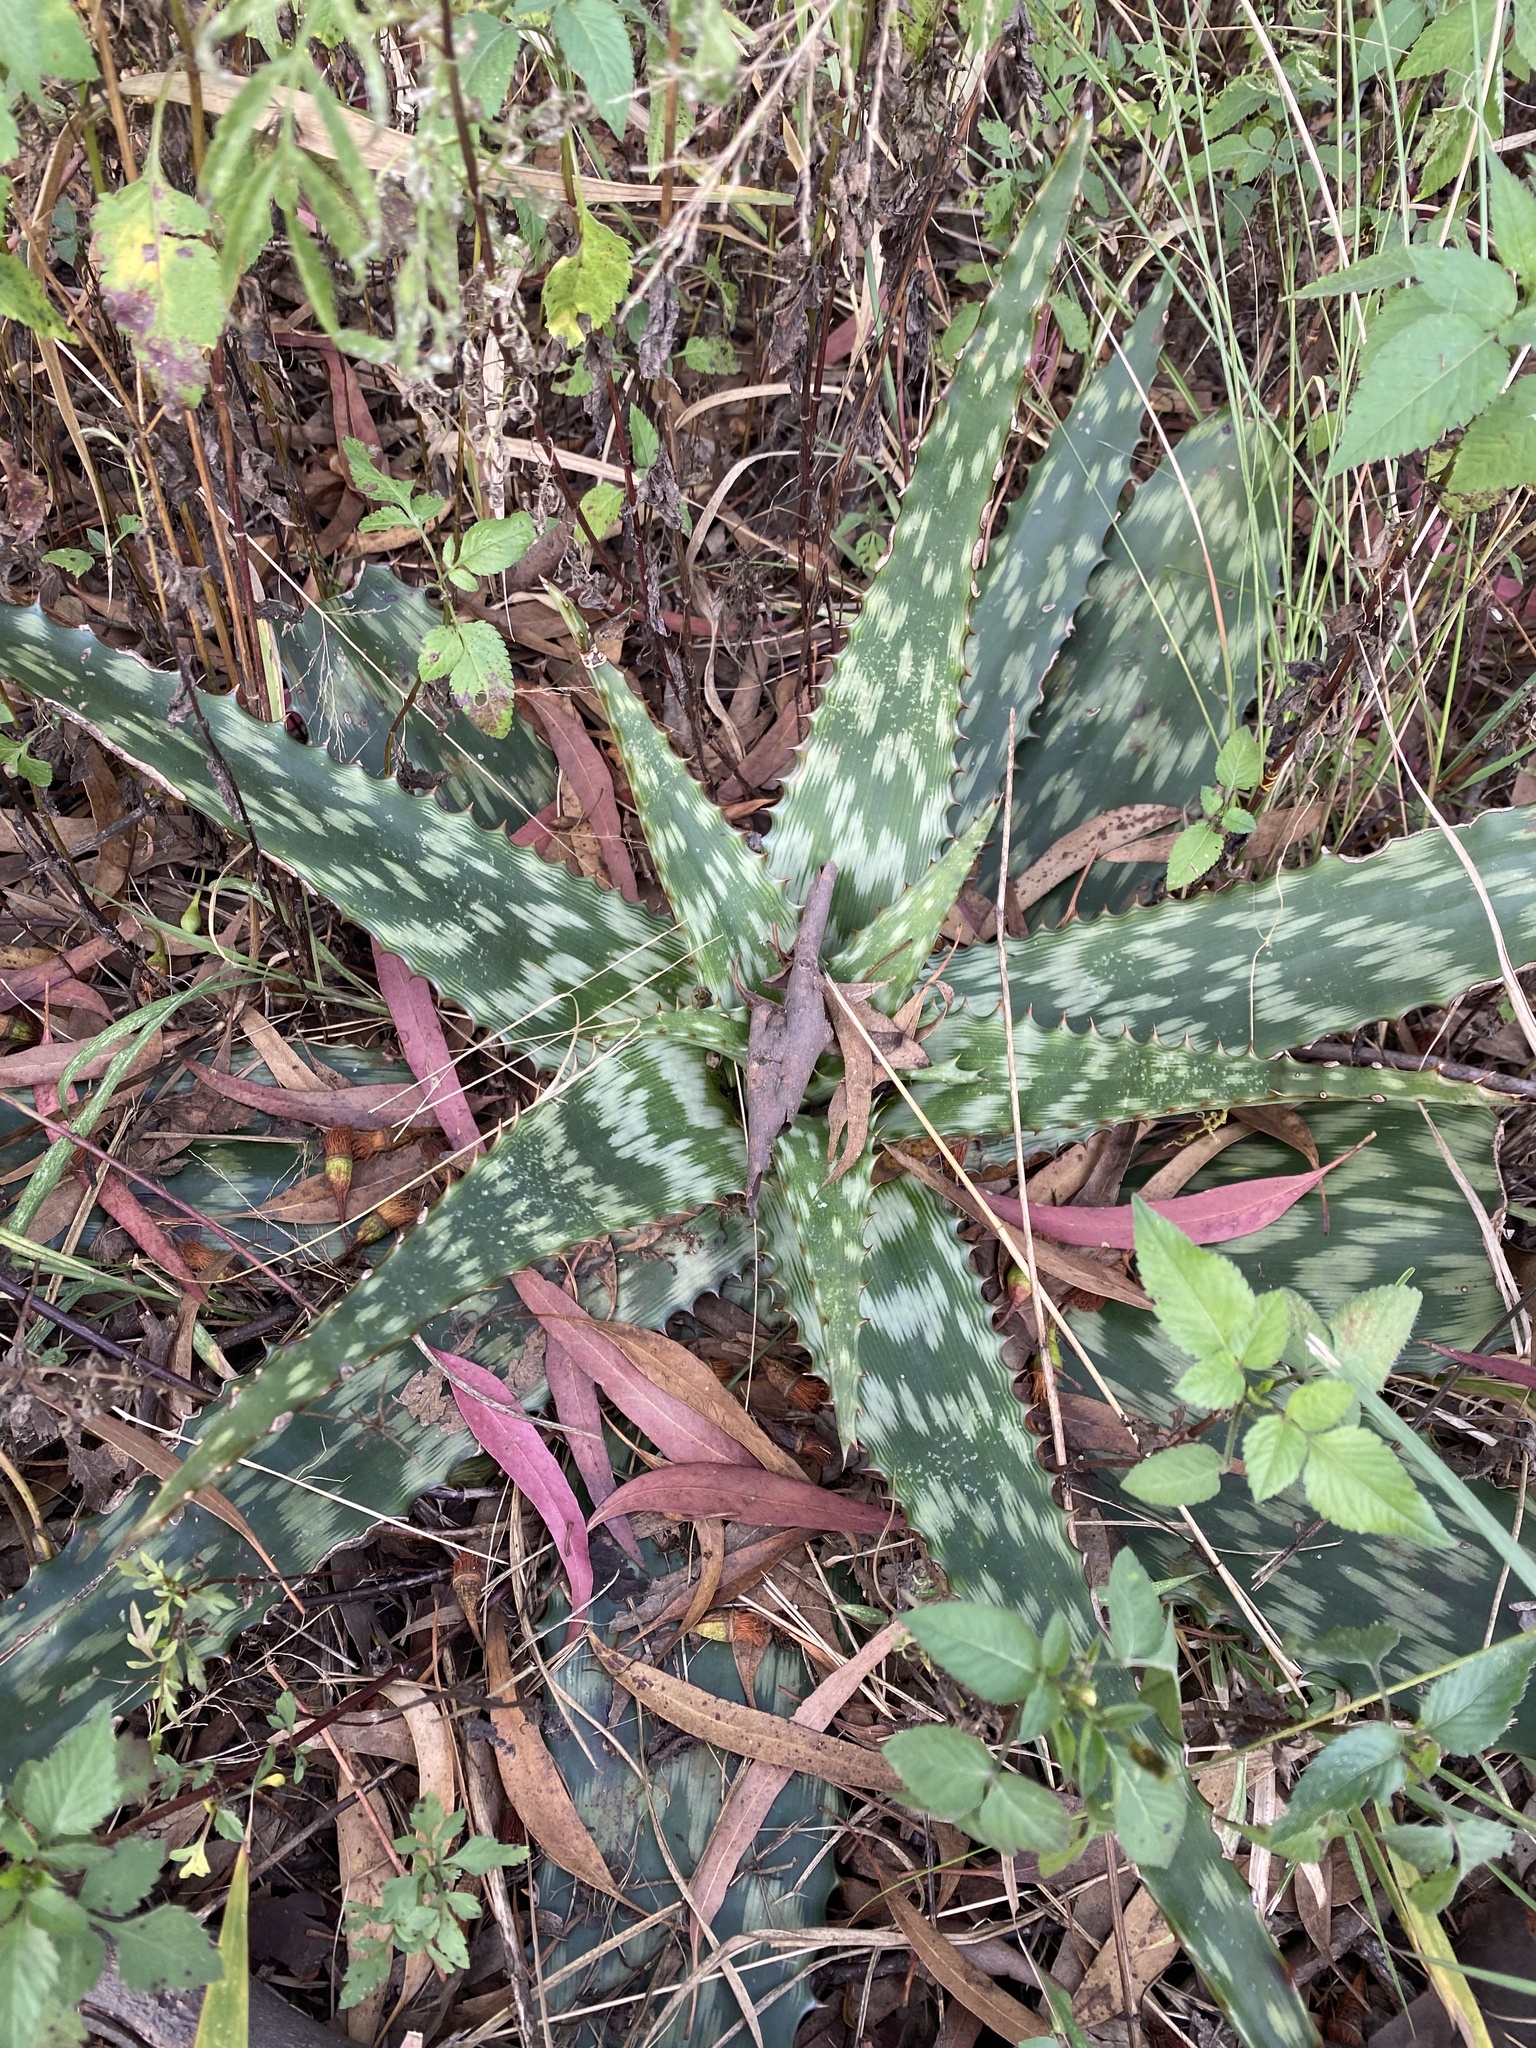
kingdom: Plantae
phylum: Tracheophyta
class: Liliopsida
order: Asparagales
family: Asphodelaceae
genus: Aloe
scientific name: Aloe davyana
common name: Spotted aloe
